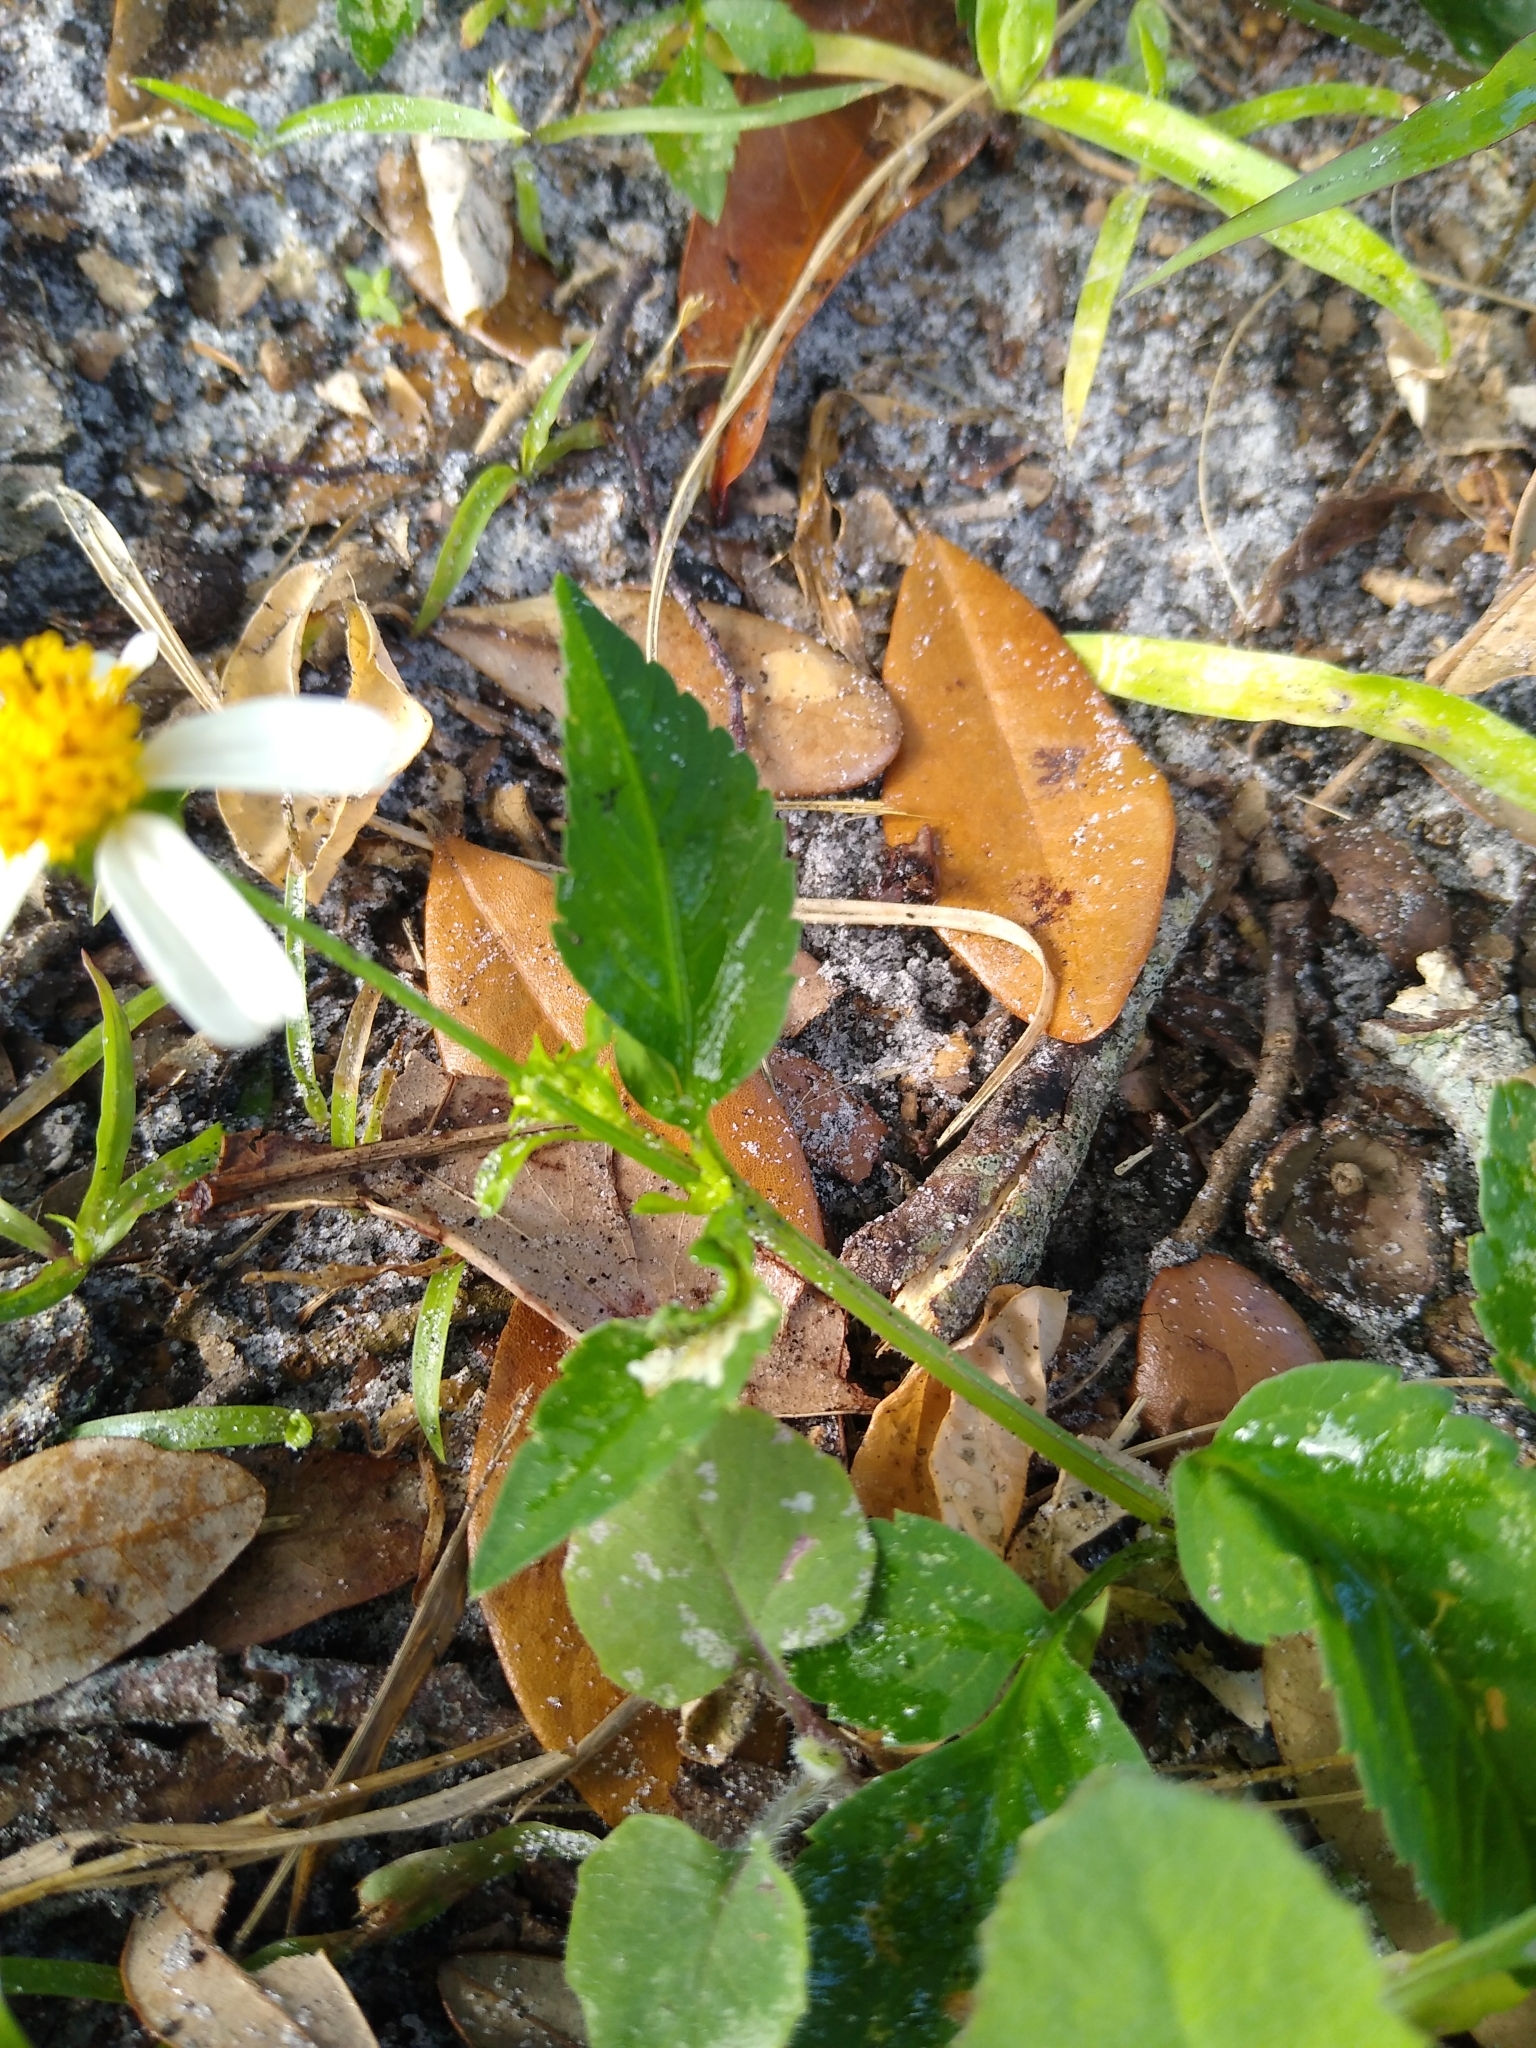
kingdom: Plantae
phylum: Tracheophyta
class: Magnoliopsida
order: Asterales
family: Asteraceae
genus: Bidens
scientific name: Bidens alba
